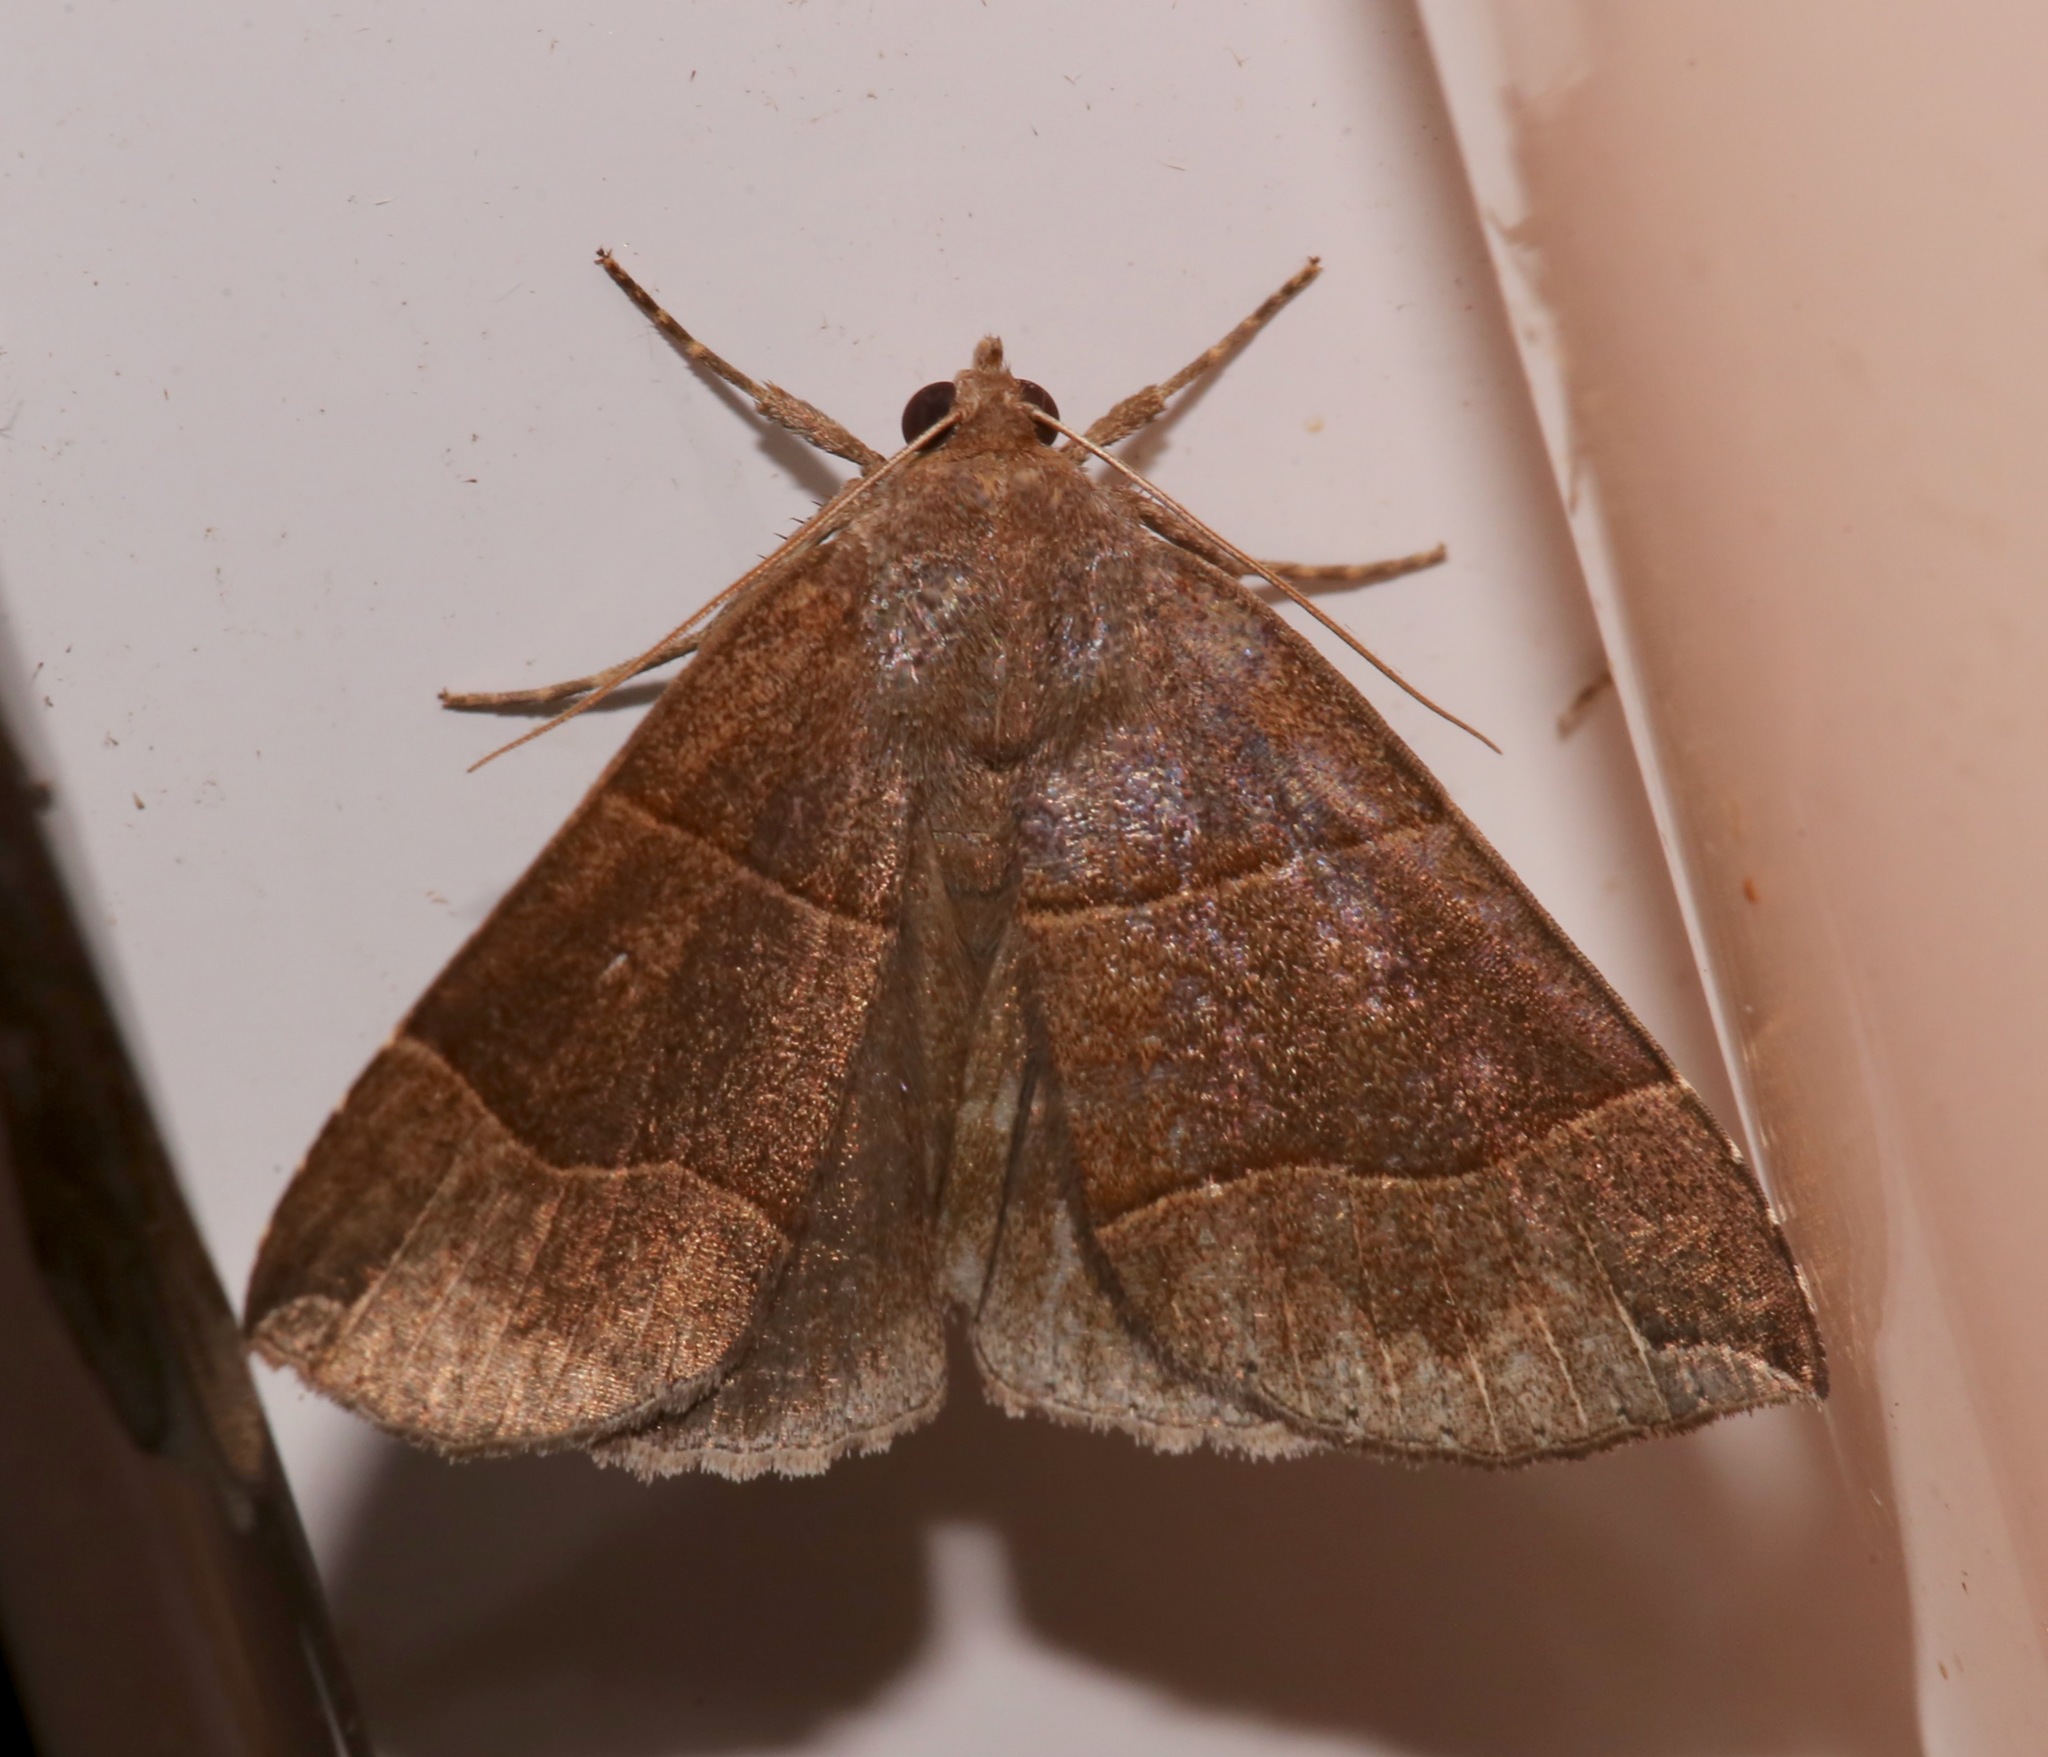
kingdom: Animalia
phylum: Arthropoda
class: Insecta
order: Lepidoptera
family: Erebidae
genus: Parallelia
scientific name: Parallelia bistriaris
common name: Maple looper moth
